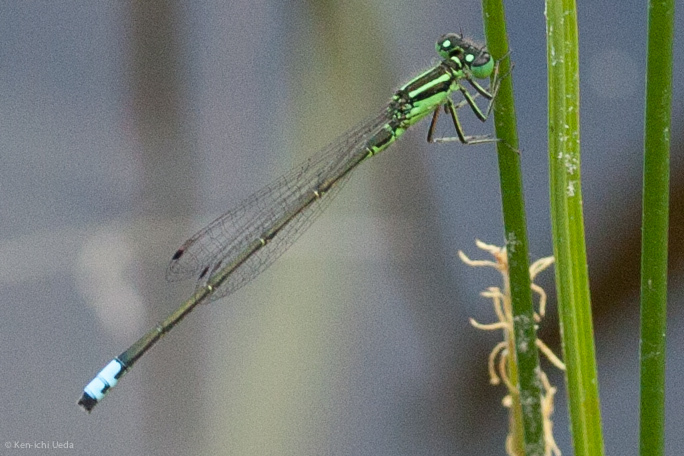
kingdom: Animalia
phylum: Arthropoda
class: Insecta
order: Odonata
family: Coenagrionidae
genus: Ischnura
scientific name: Ischnura verticalis
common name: Eastern forktail
